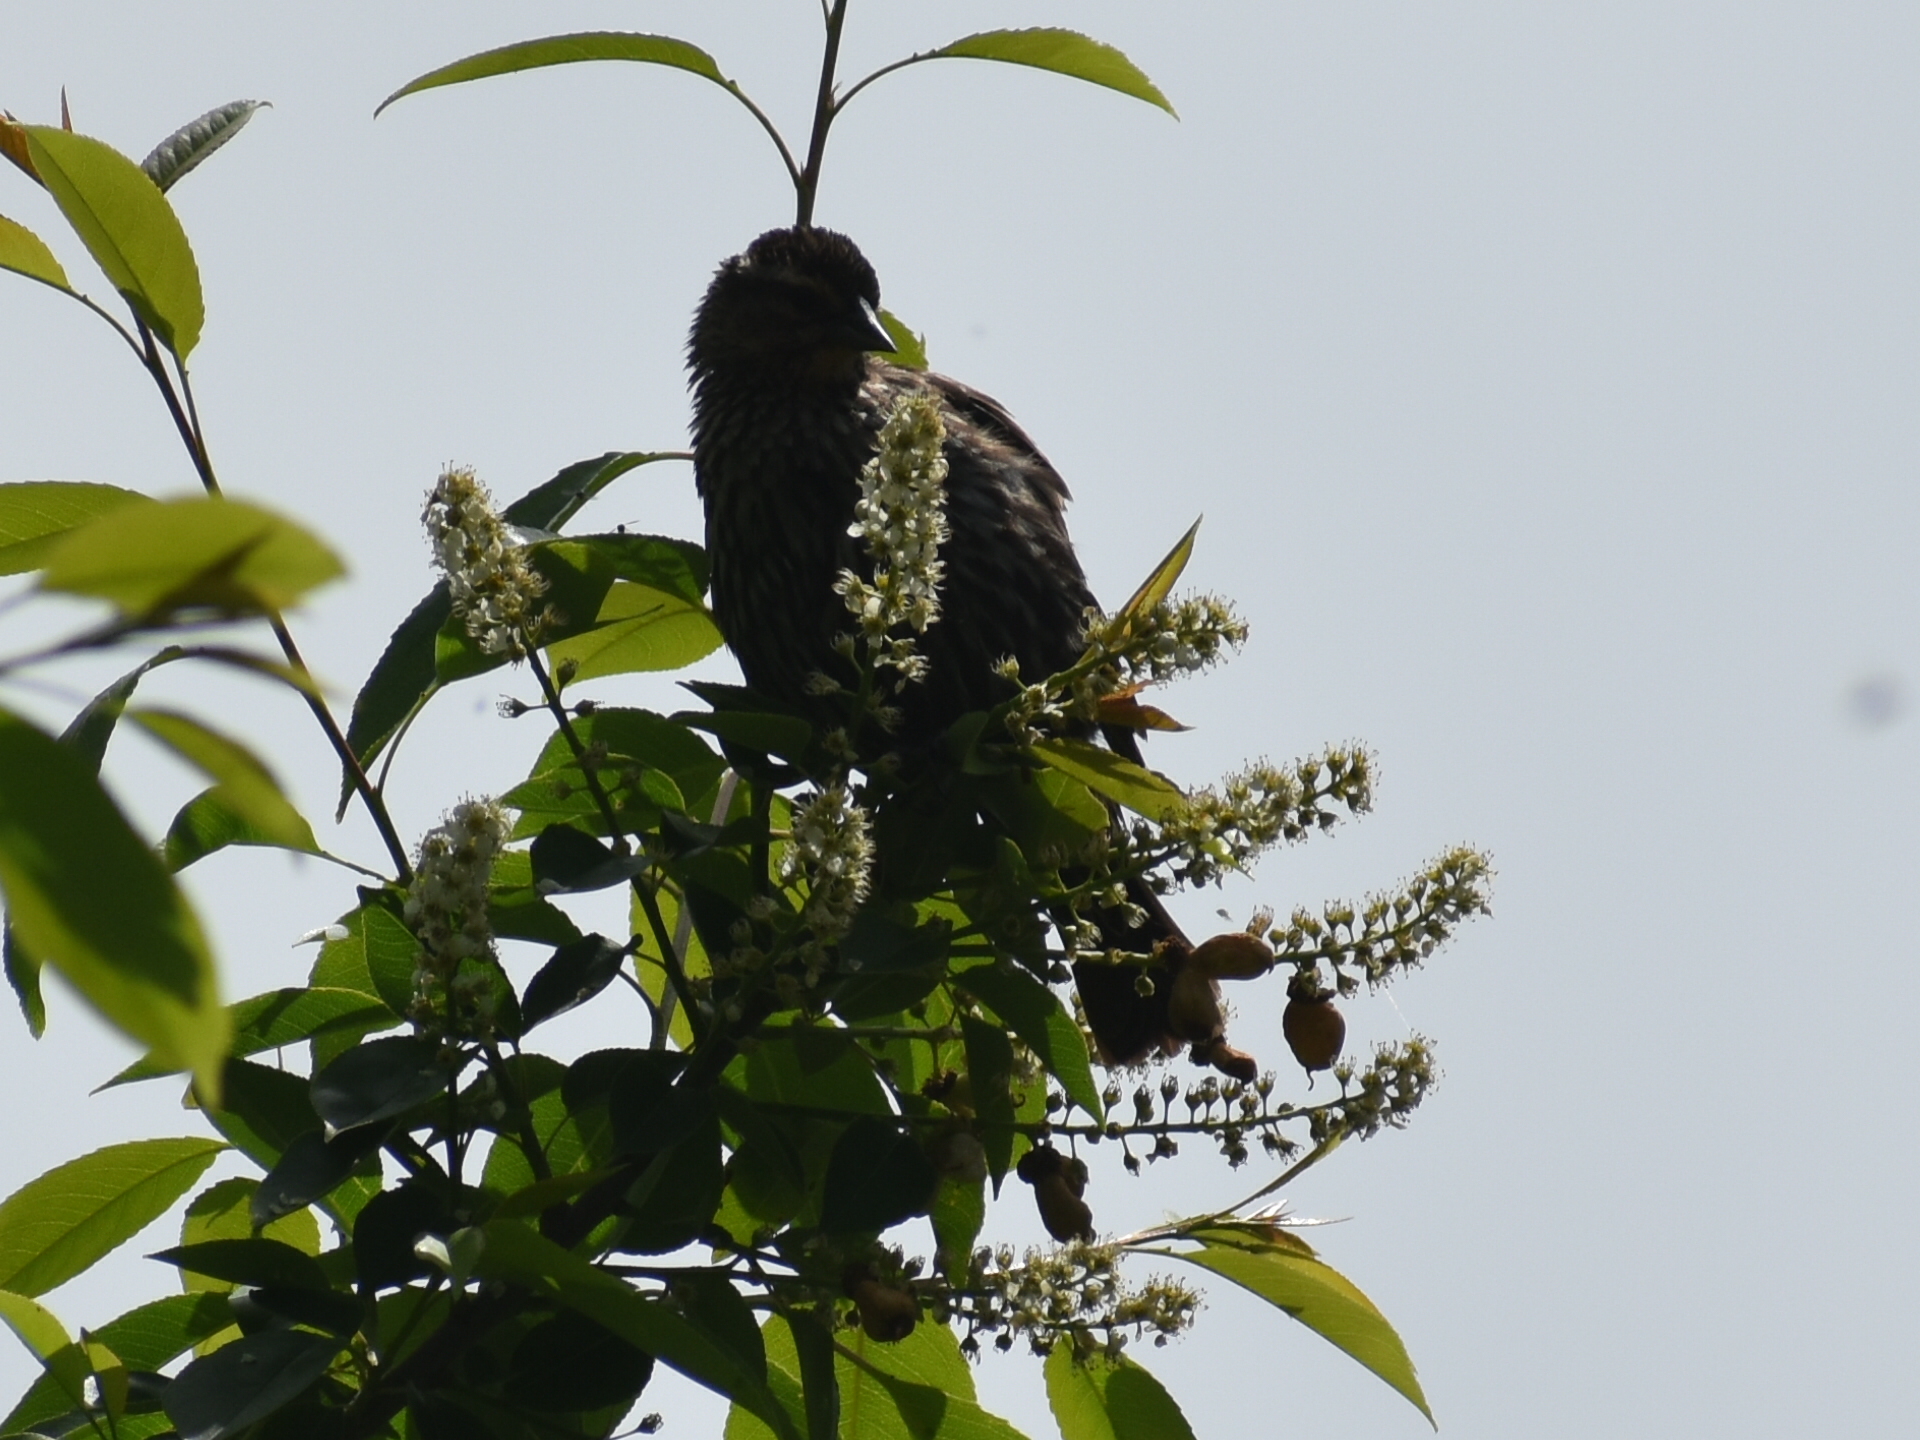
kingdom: Animalia
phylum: Chordata
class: Aves
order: Passeriformes
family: Icteridae
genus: Agelaius
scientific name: Agelaius phoeniceus
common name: Red-winged blackbird
